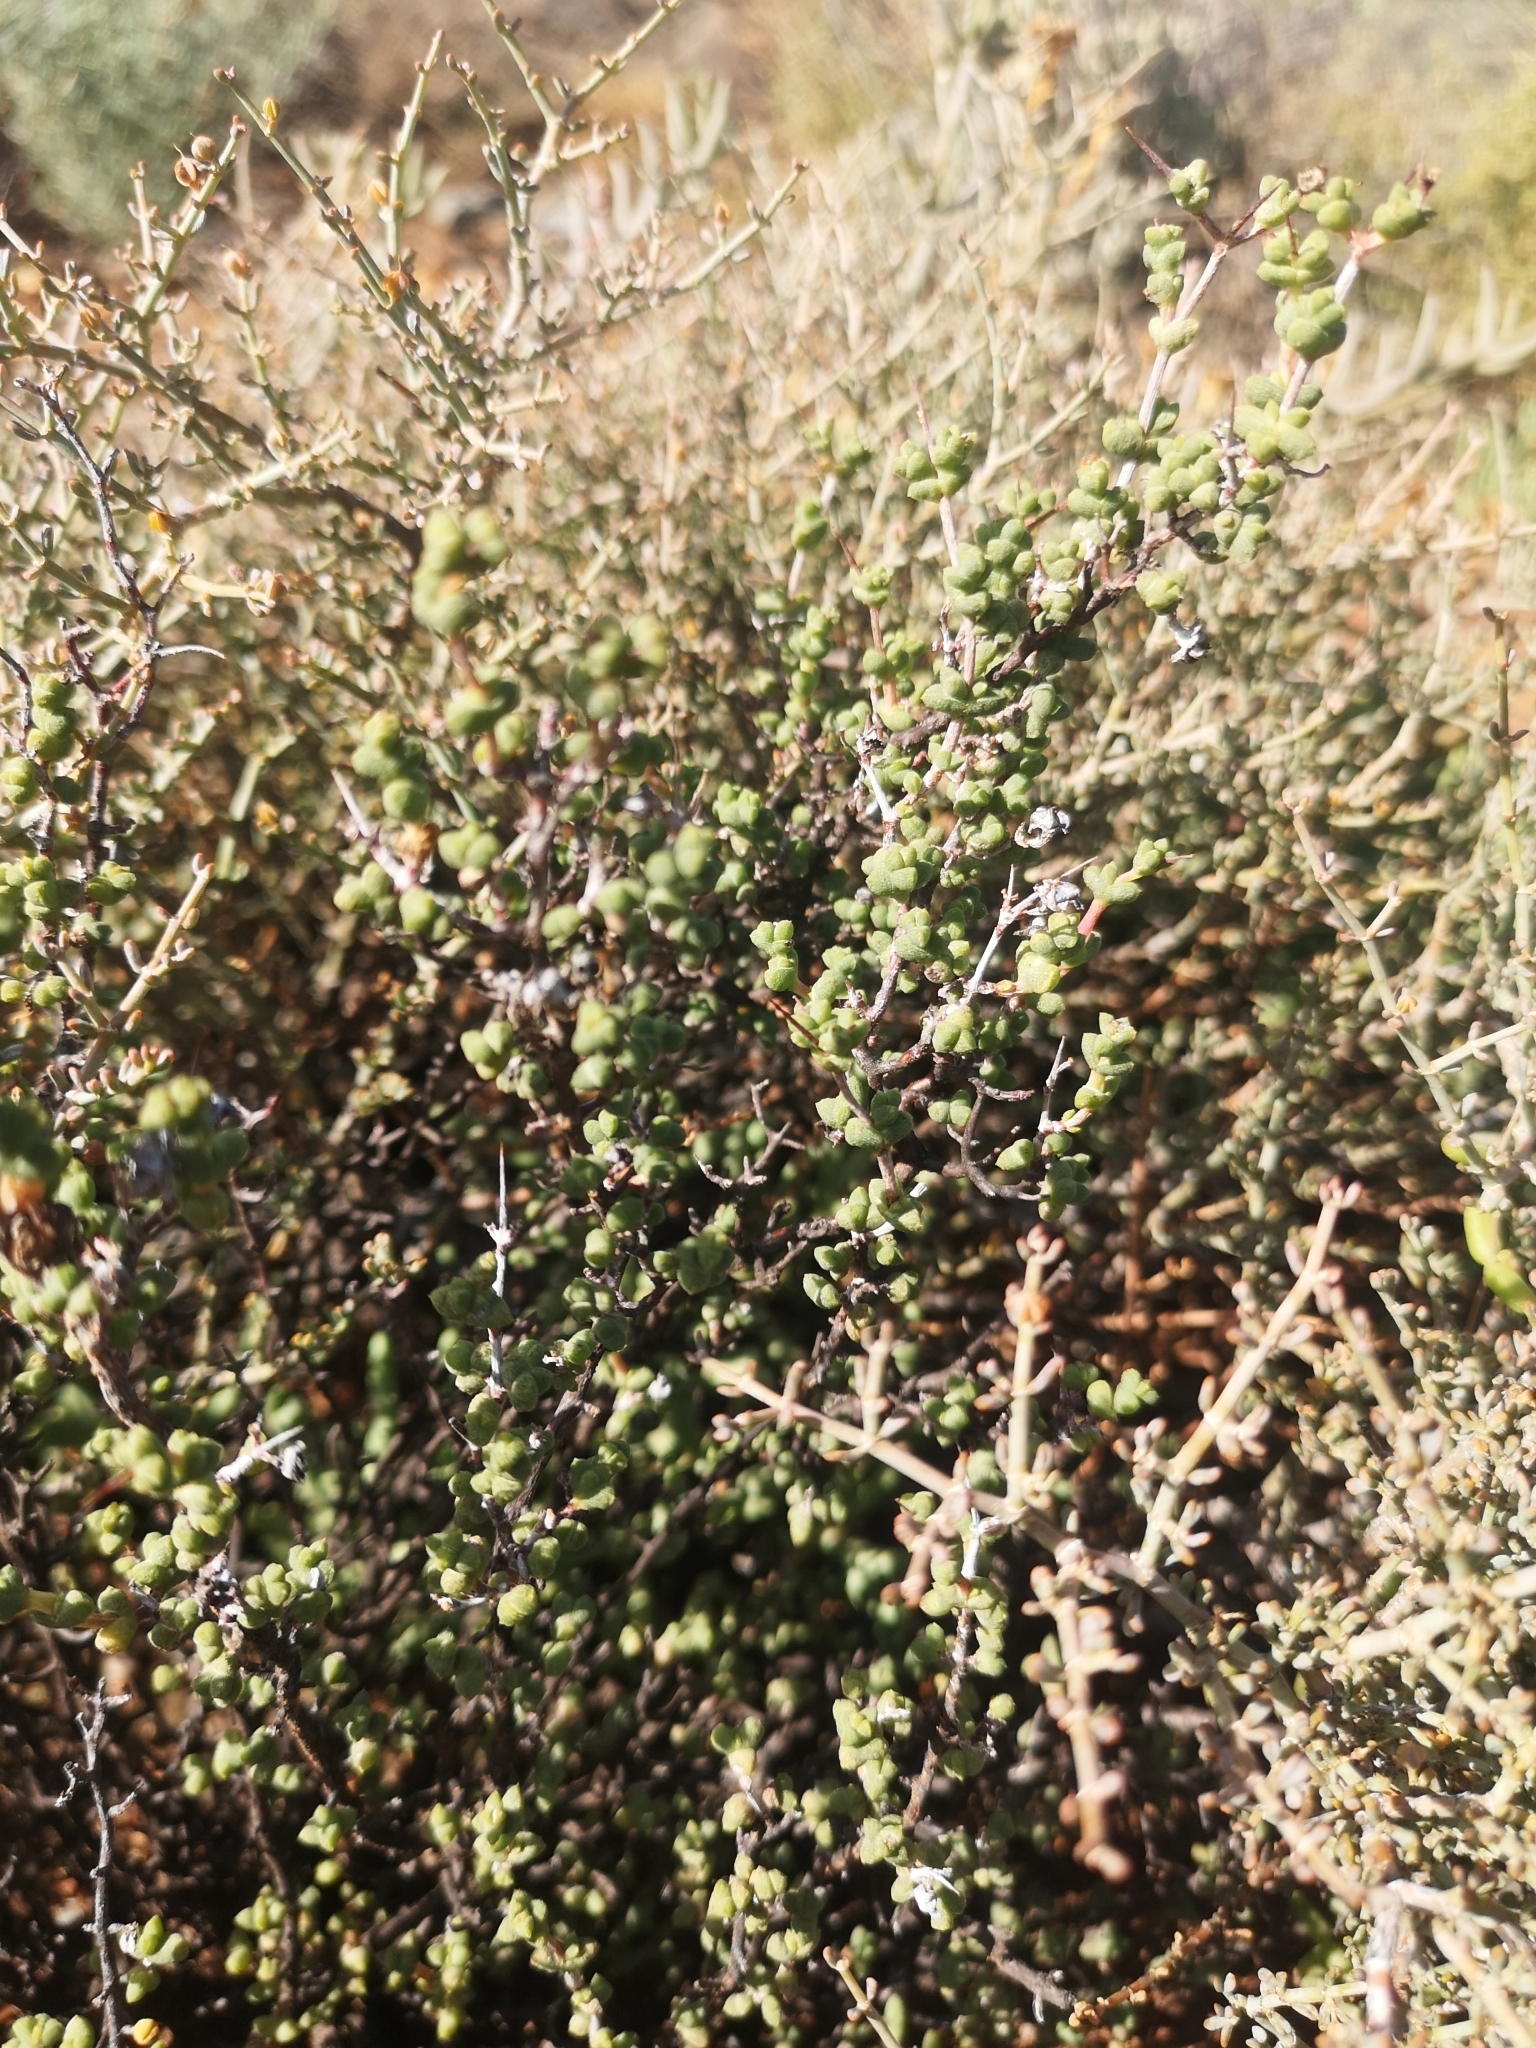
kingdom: Plantae
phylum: Tracheophyta
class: Magnoliopsida
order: Caryophyllales
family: Aizoaceae
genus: Ruschia
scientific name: Ruschia cradockensis
